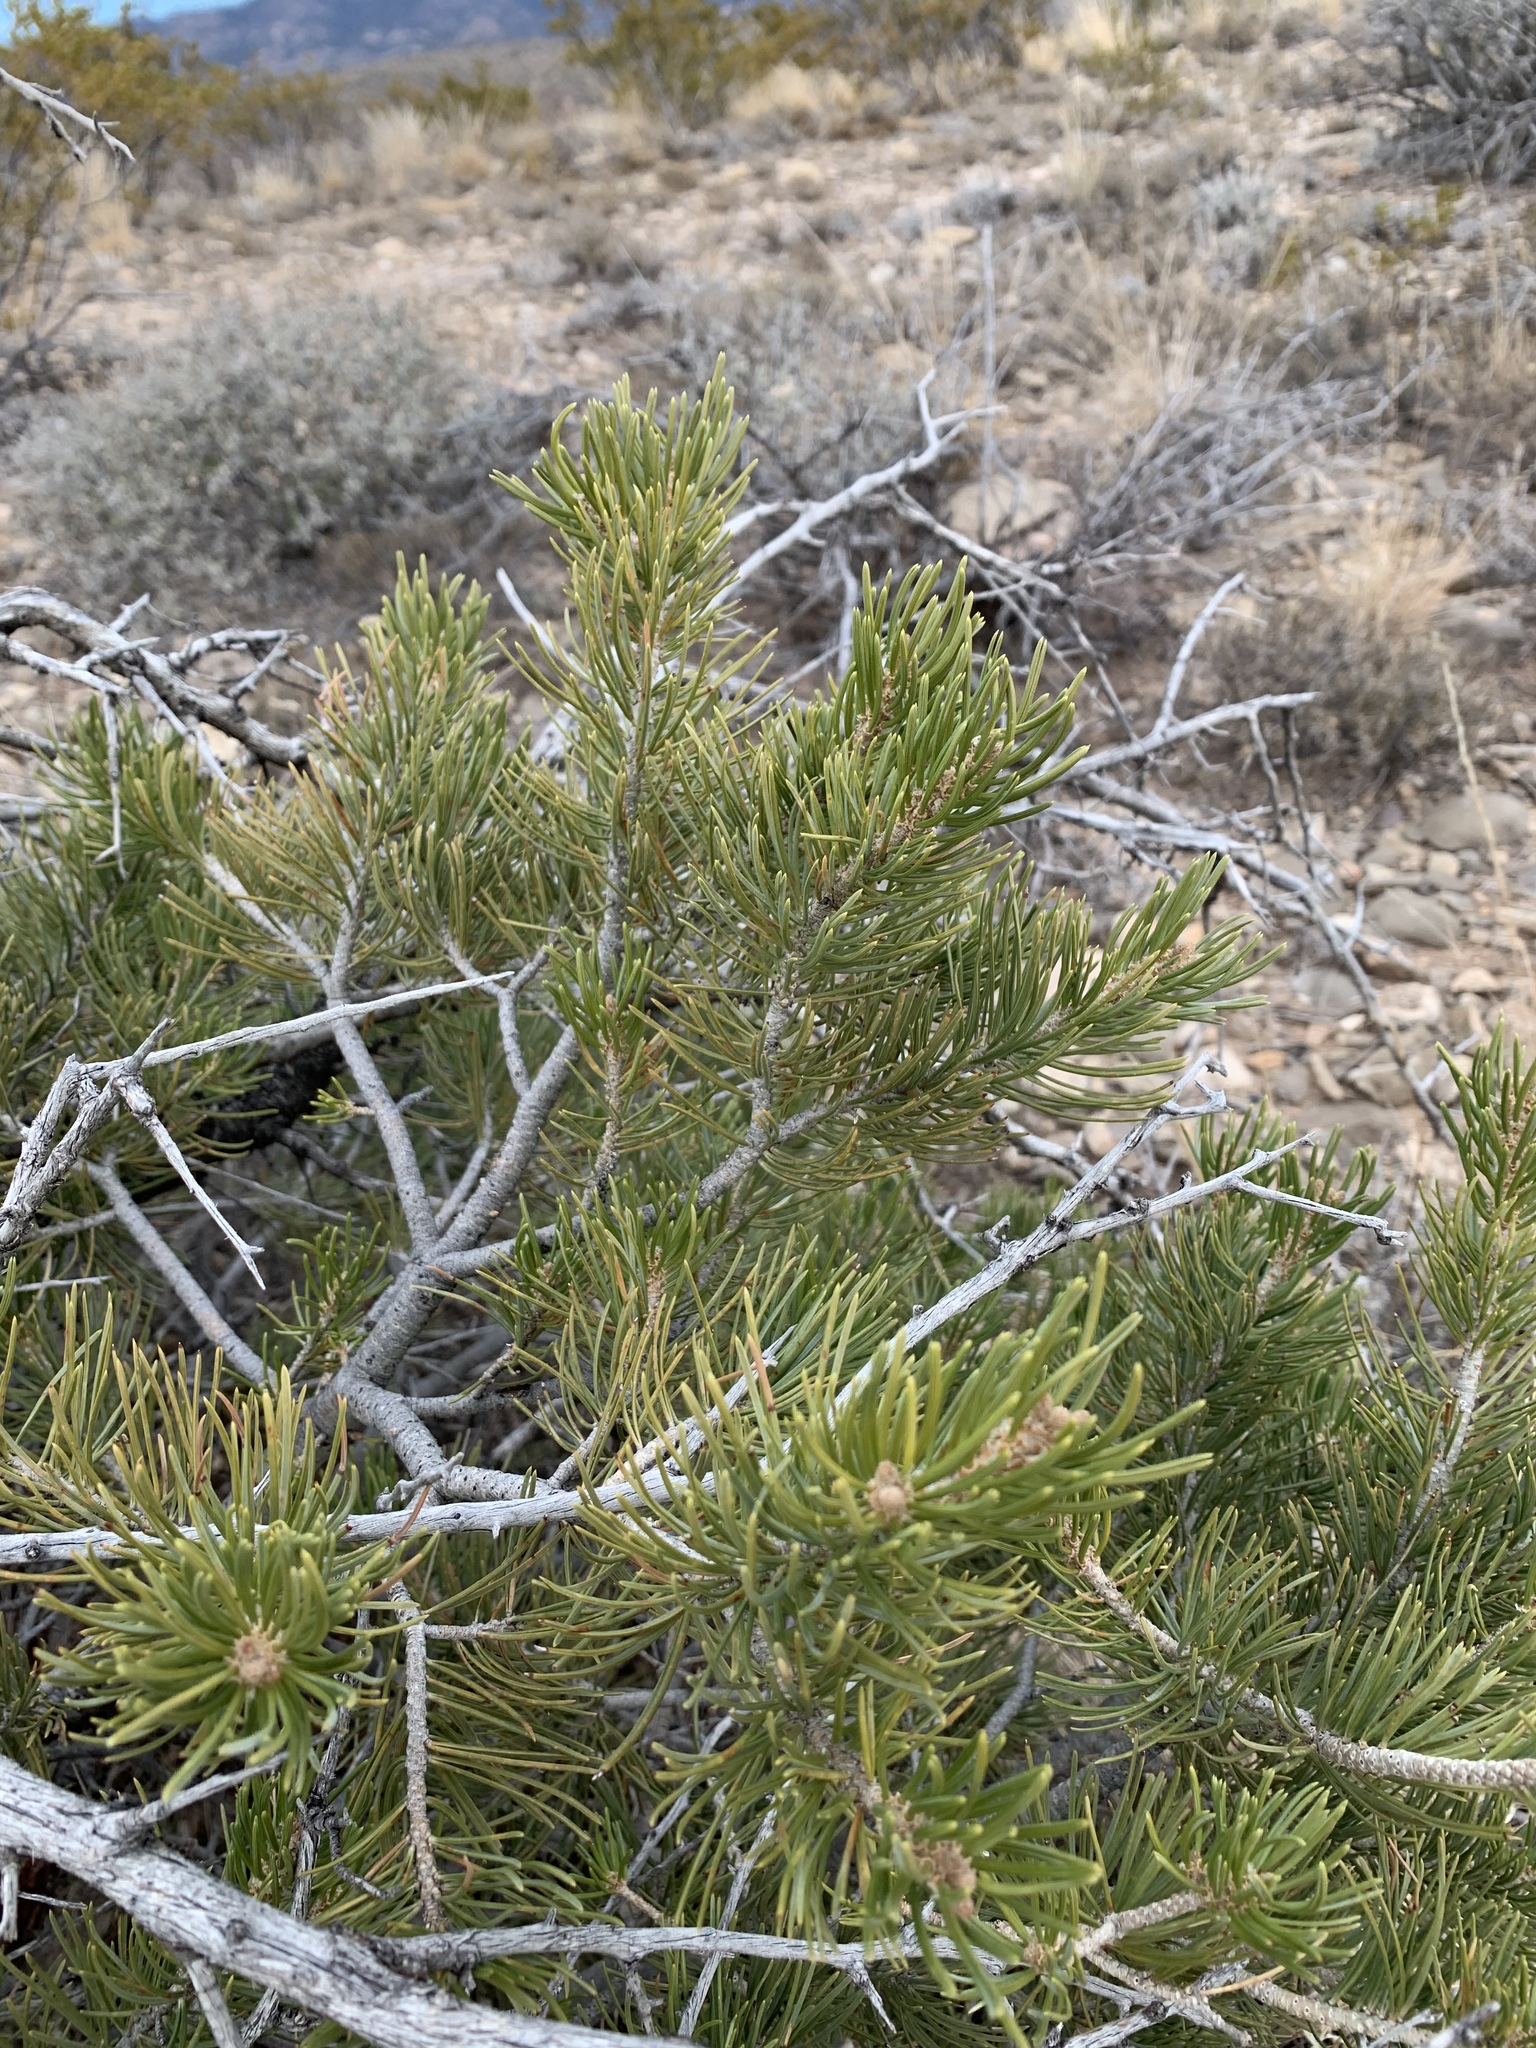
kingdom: Plantae
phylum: Tracheophyta
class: Pinopsida
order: Pinales
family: Pinaceae
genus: Pinus
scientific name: Pinus edulis
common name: Colorado pinyon
